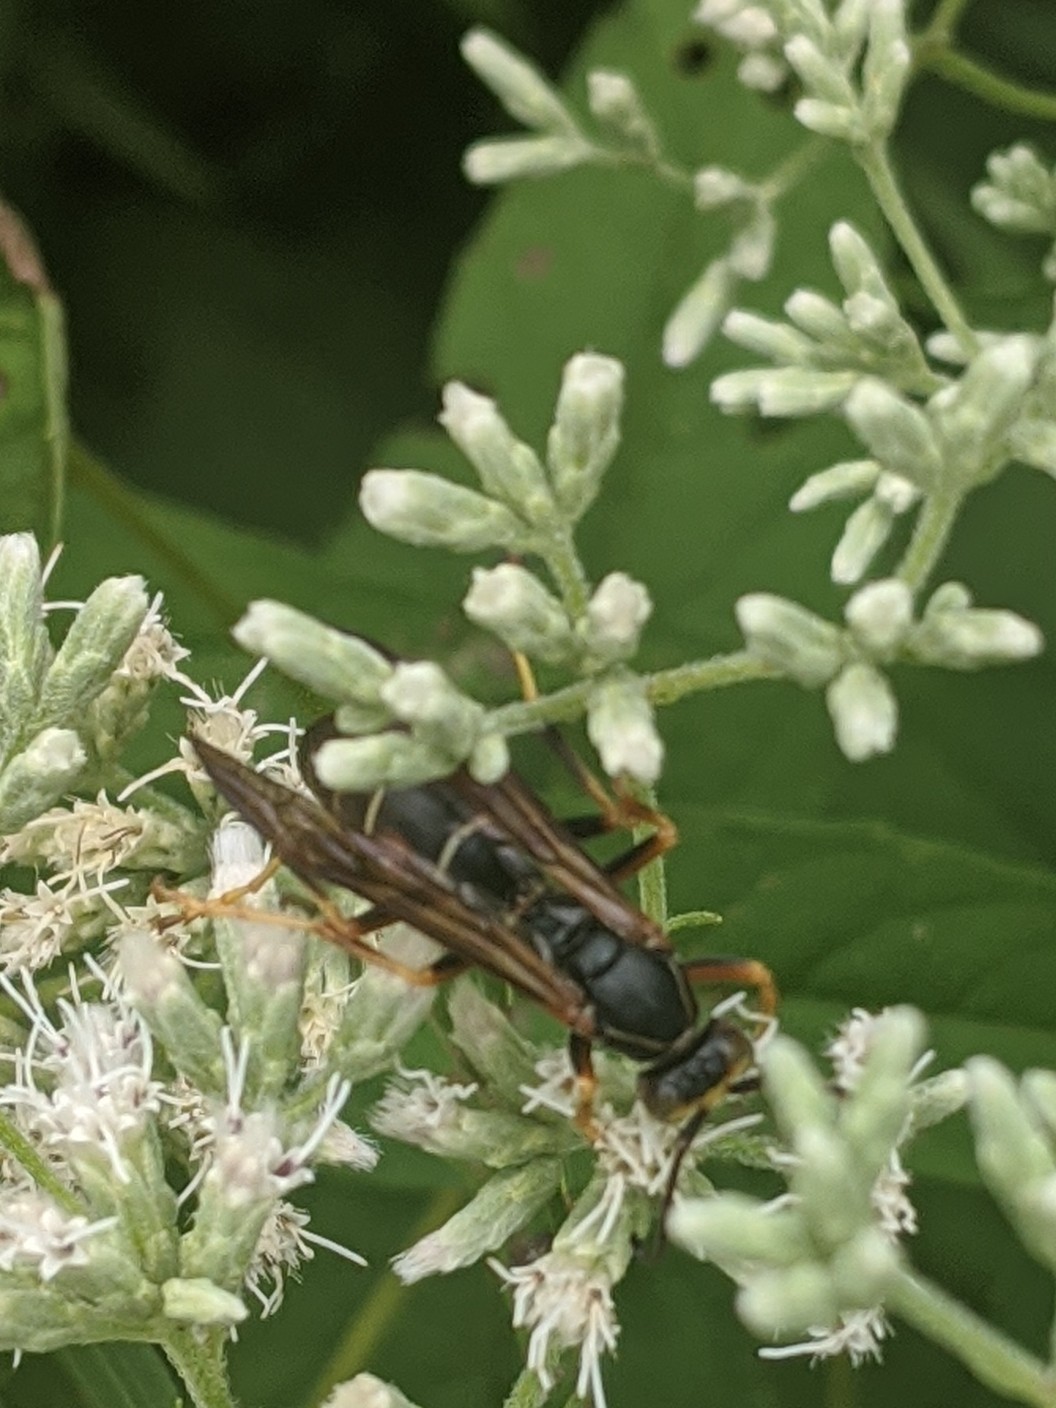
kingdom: Animalia
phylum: Arthropoda
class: Insecta
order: Hymenoptera
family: Eumenidae
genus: Polistes
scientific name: Polistes fuscatus
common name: Dark paper wasp
